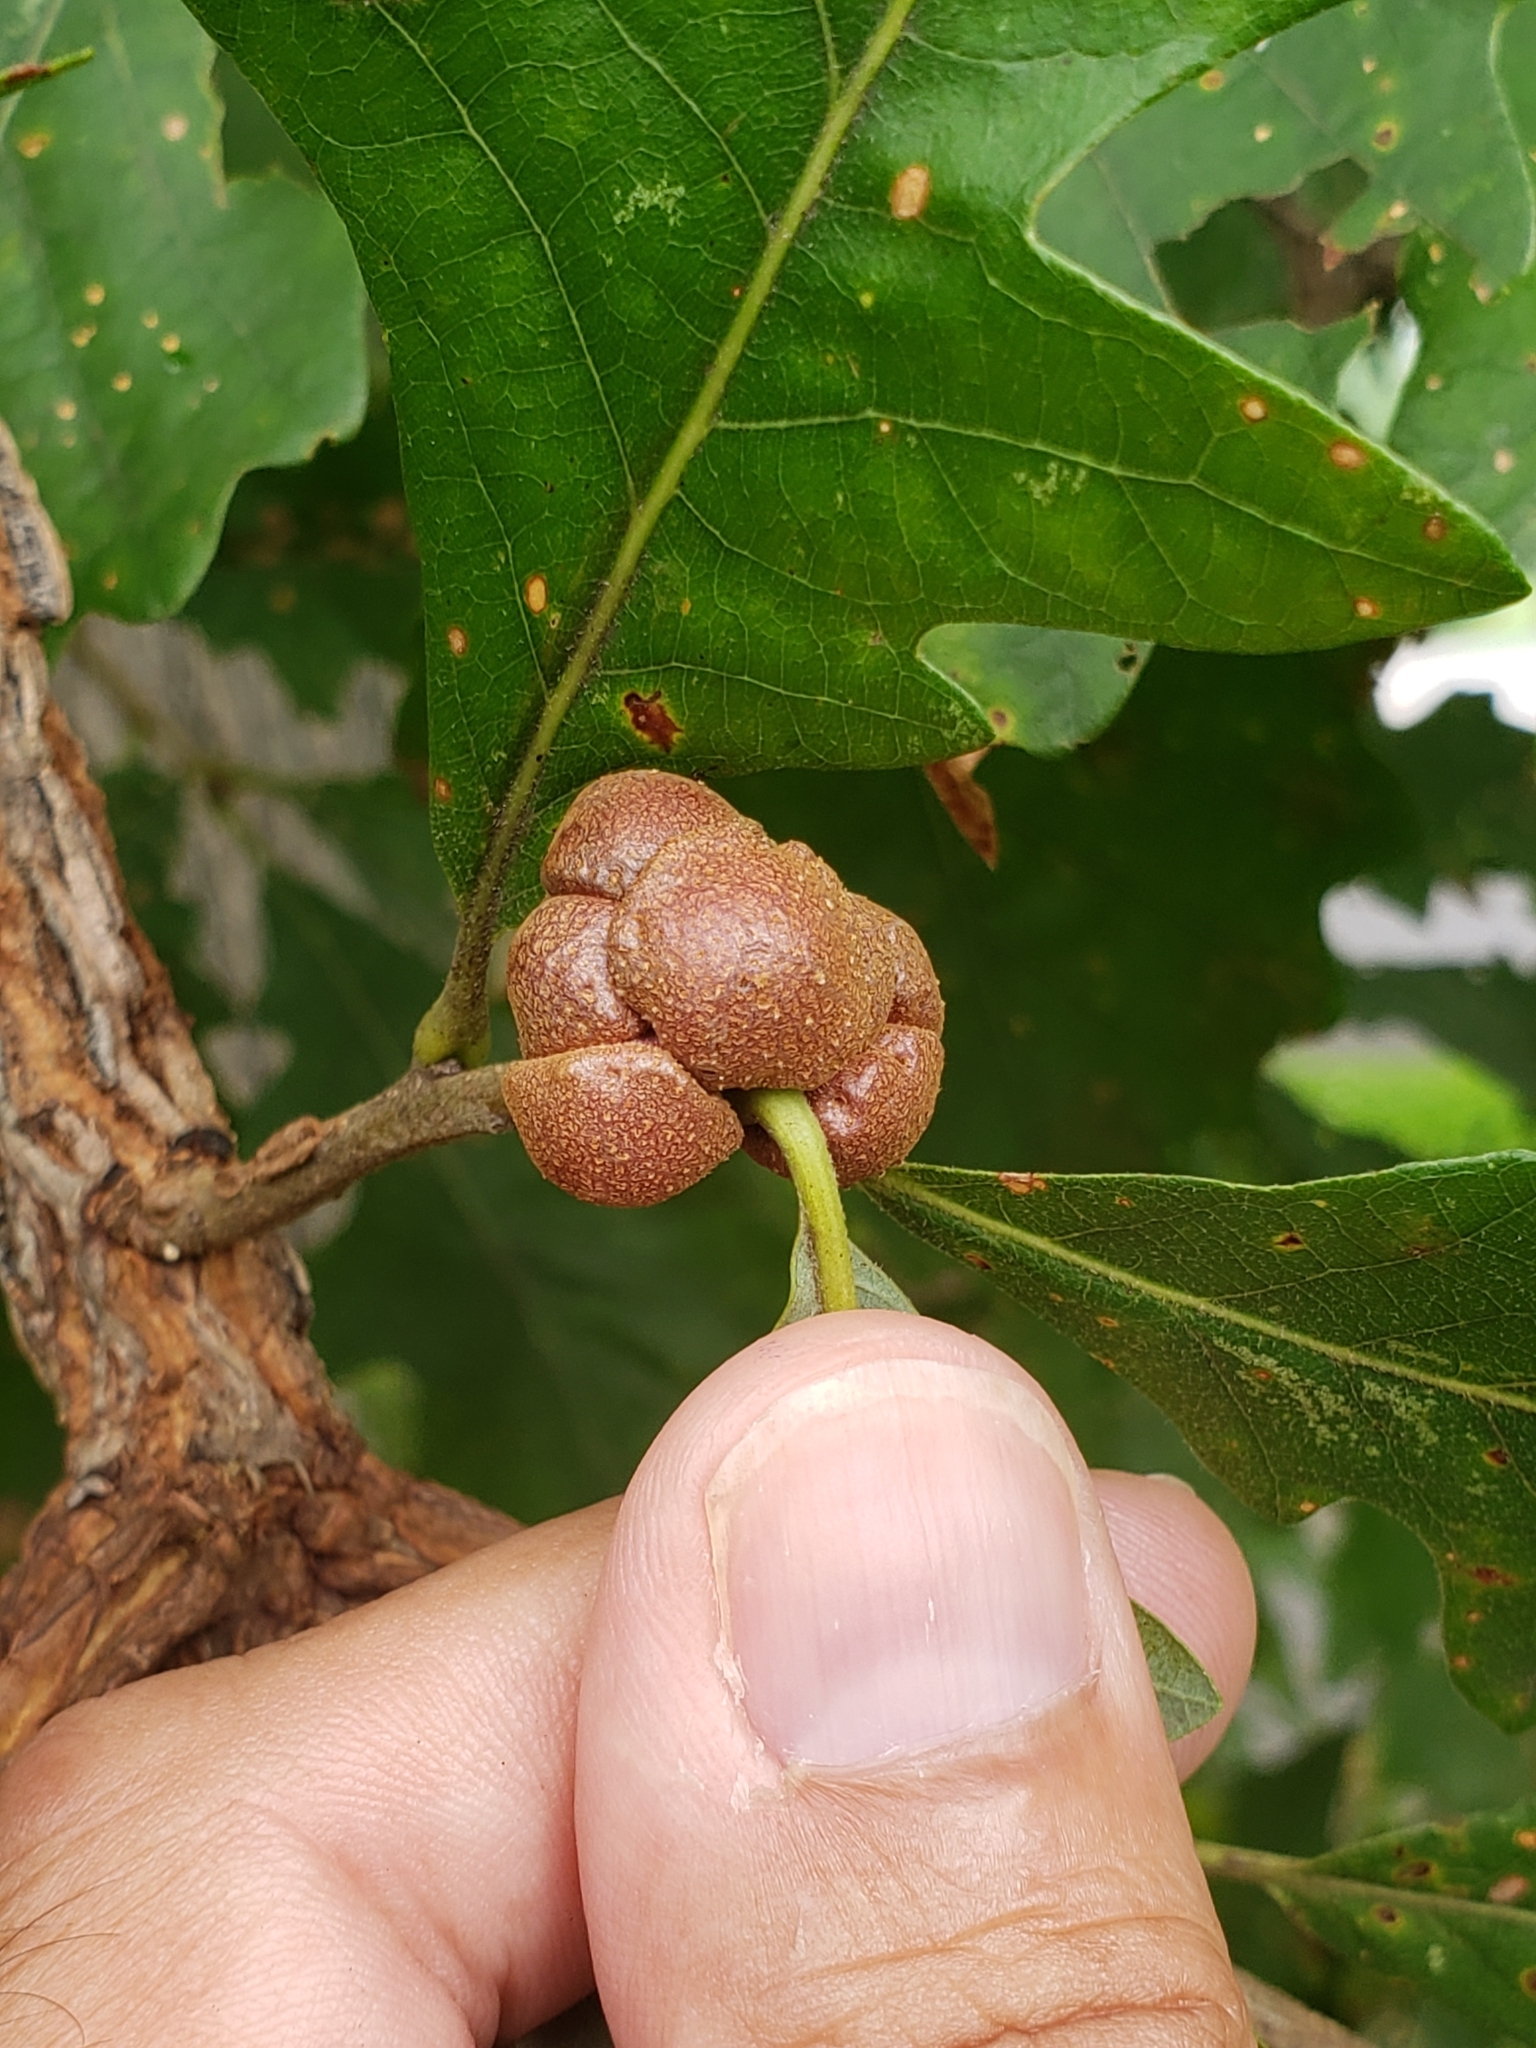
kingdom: Animalia
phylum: Arthropoda
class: Insecta
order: Hymenoptera
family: Cynipidae
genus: Andricus
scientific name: Andricus
